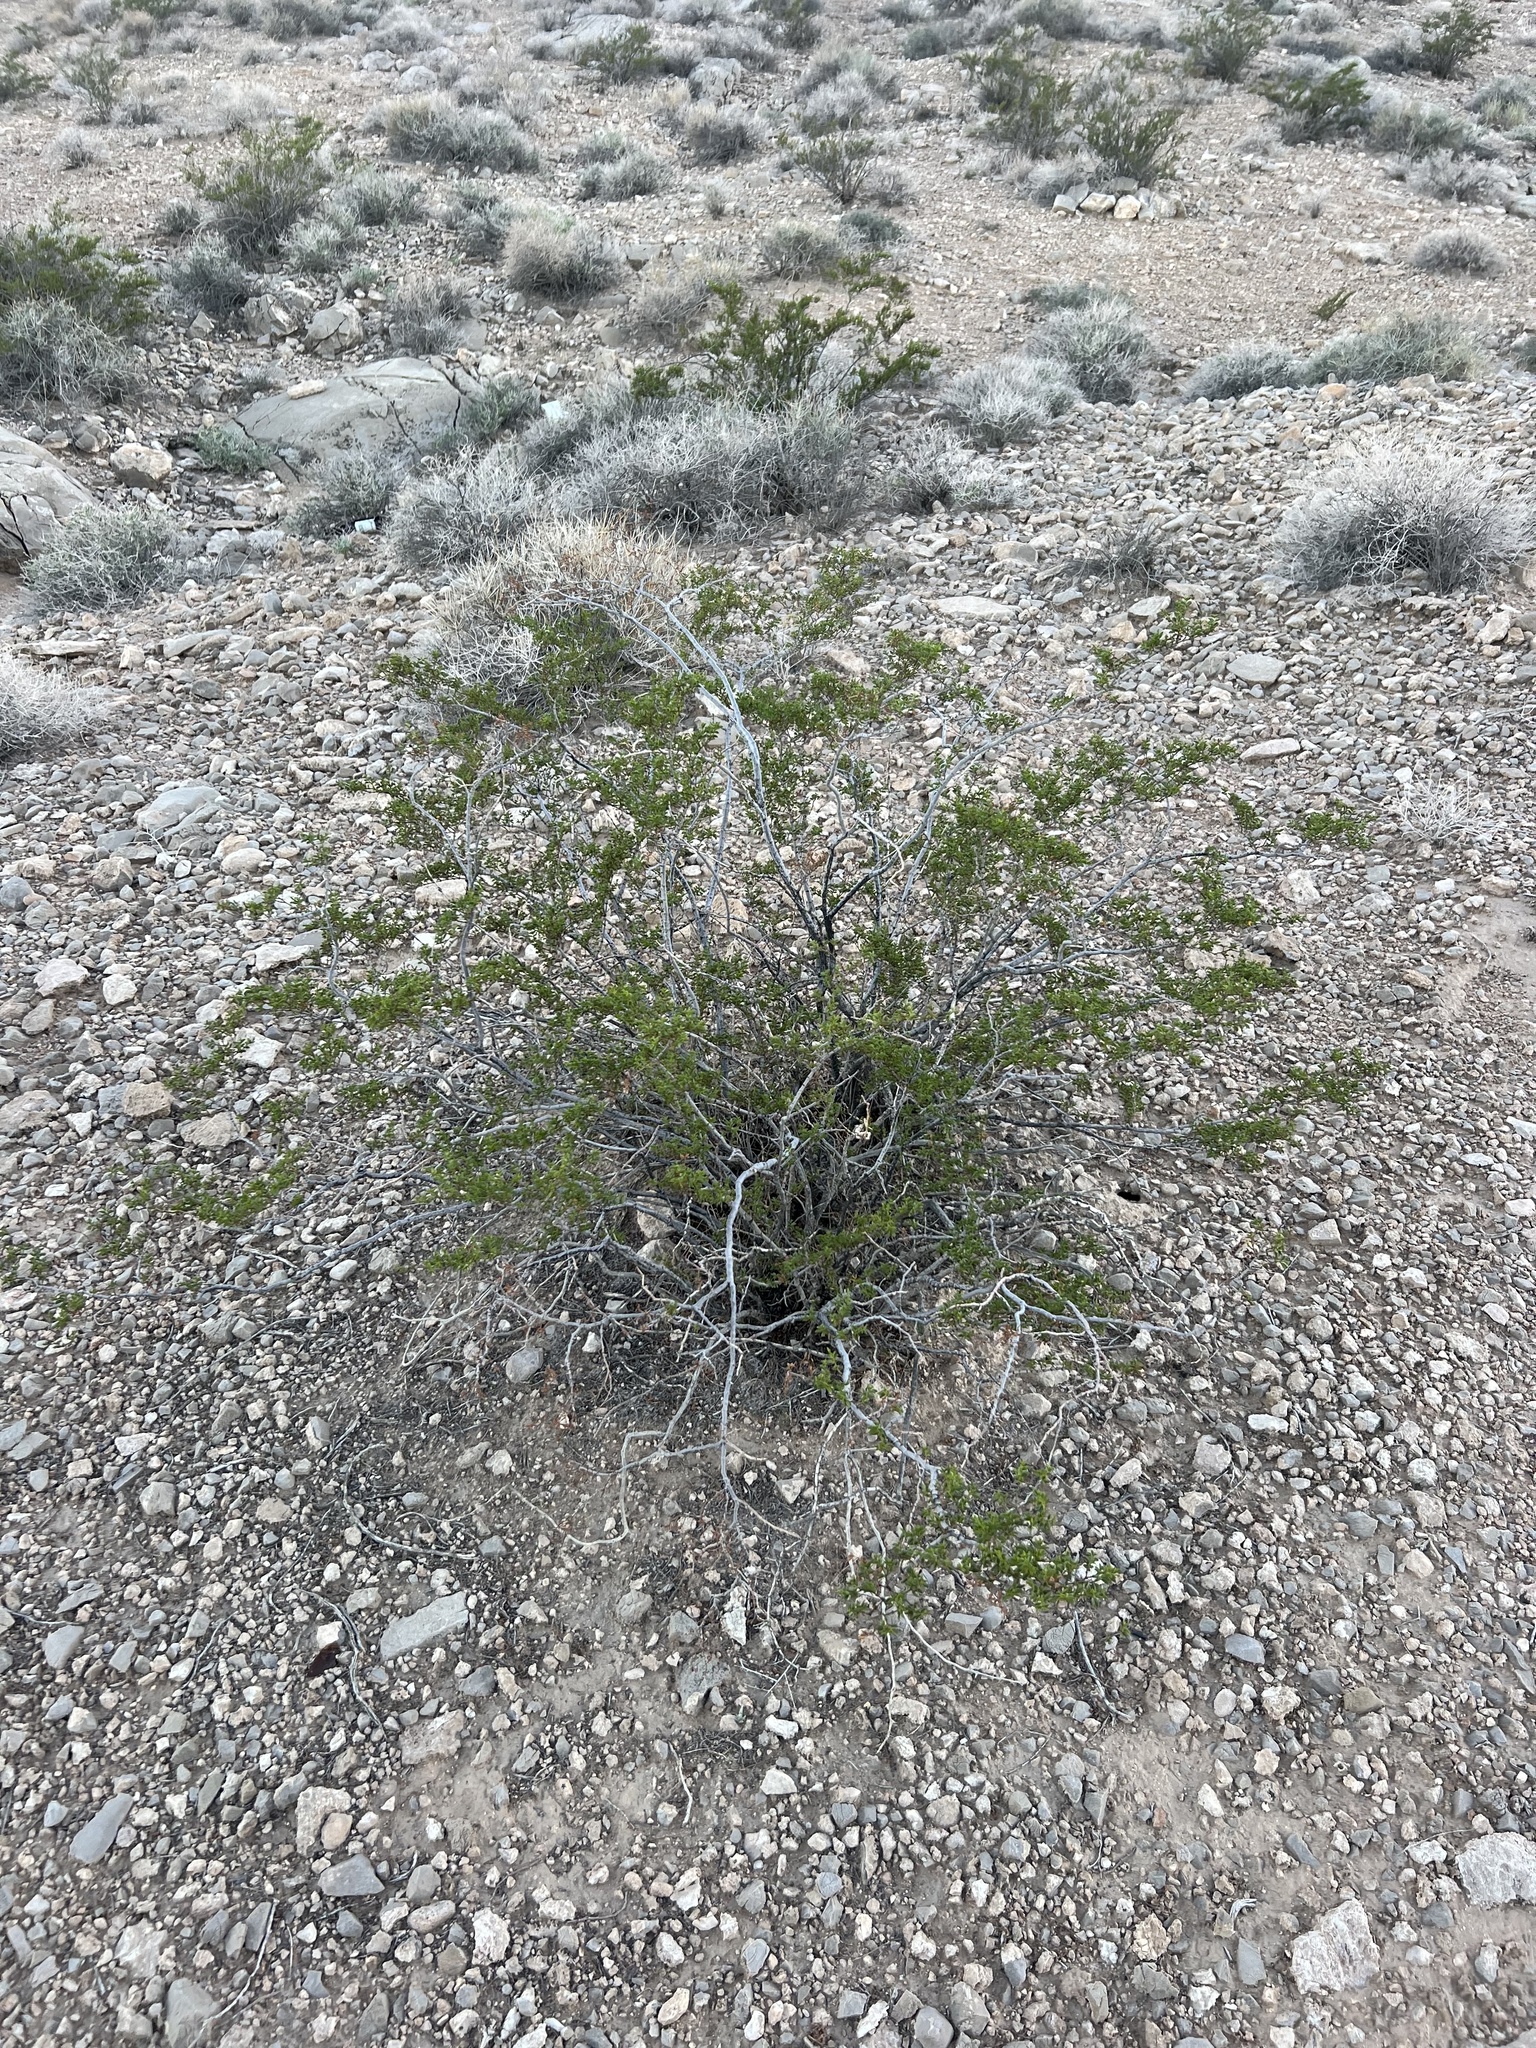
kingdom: Plantae
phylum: Tracheophyta
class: Magnoliopsida
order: Zygophyllales
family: Zygophyllaceae
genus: Larrea
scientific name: Larrea tridentata
